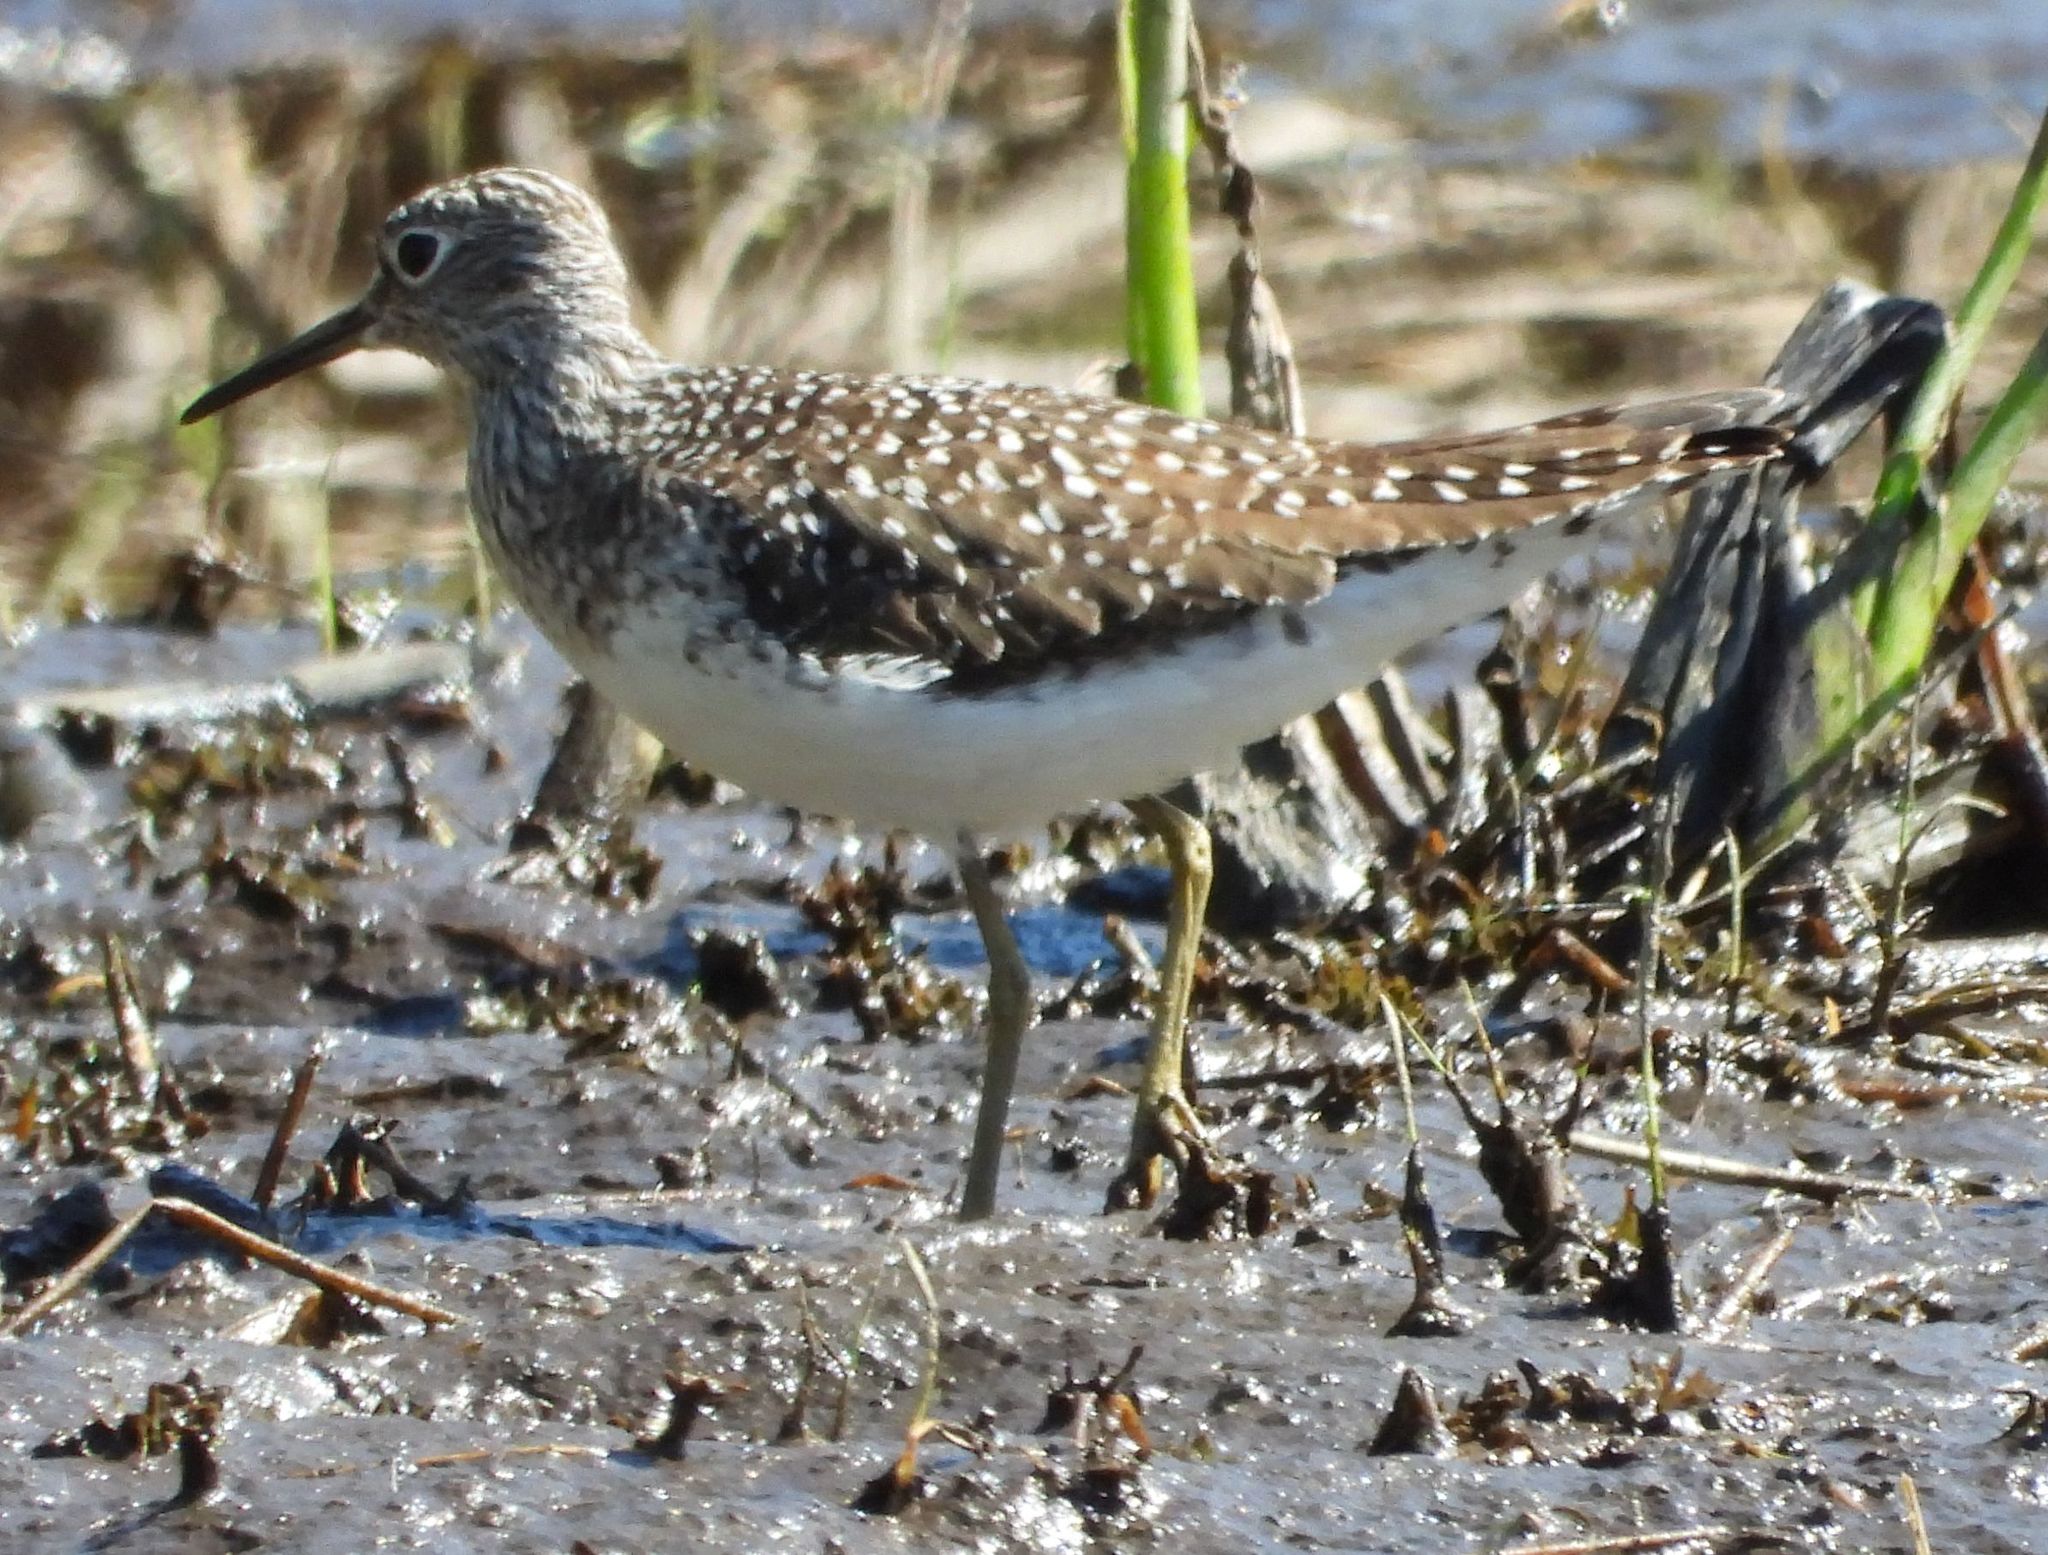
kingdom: Animalia
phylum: Chordata
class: Aves
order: Charadriiformes
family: Scolopacidae
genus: Tringa
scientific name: Tringa solitaria
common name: Solitary sandpiper
